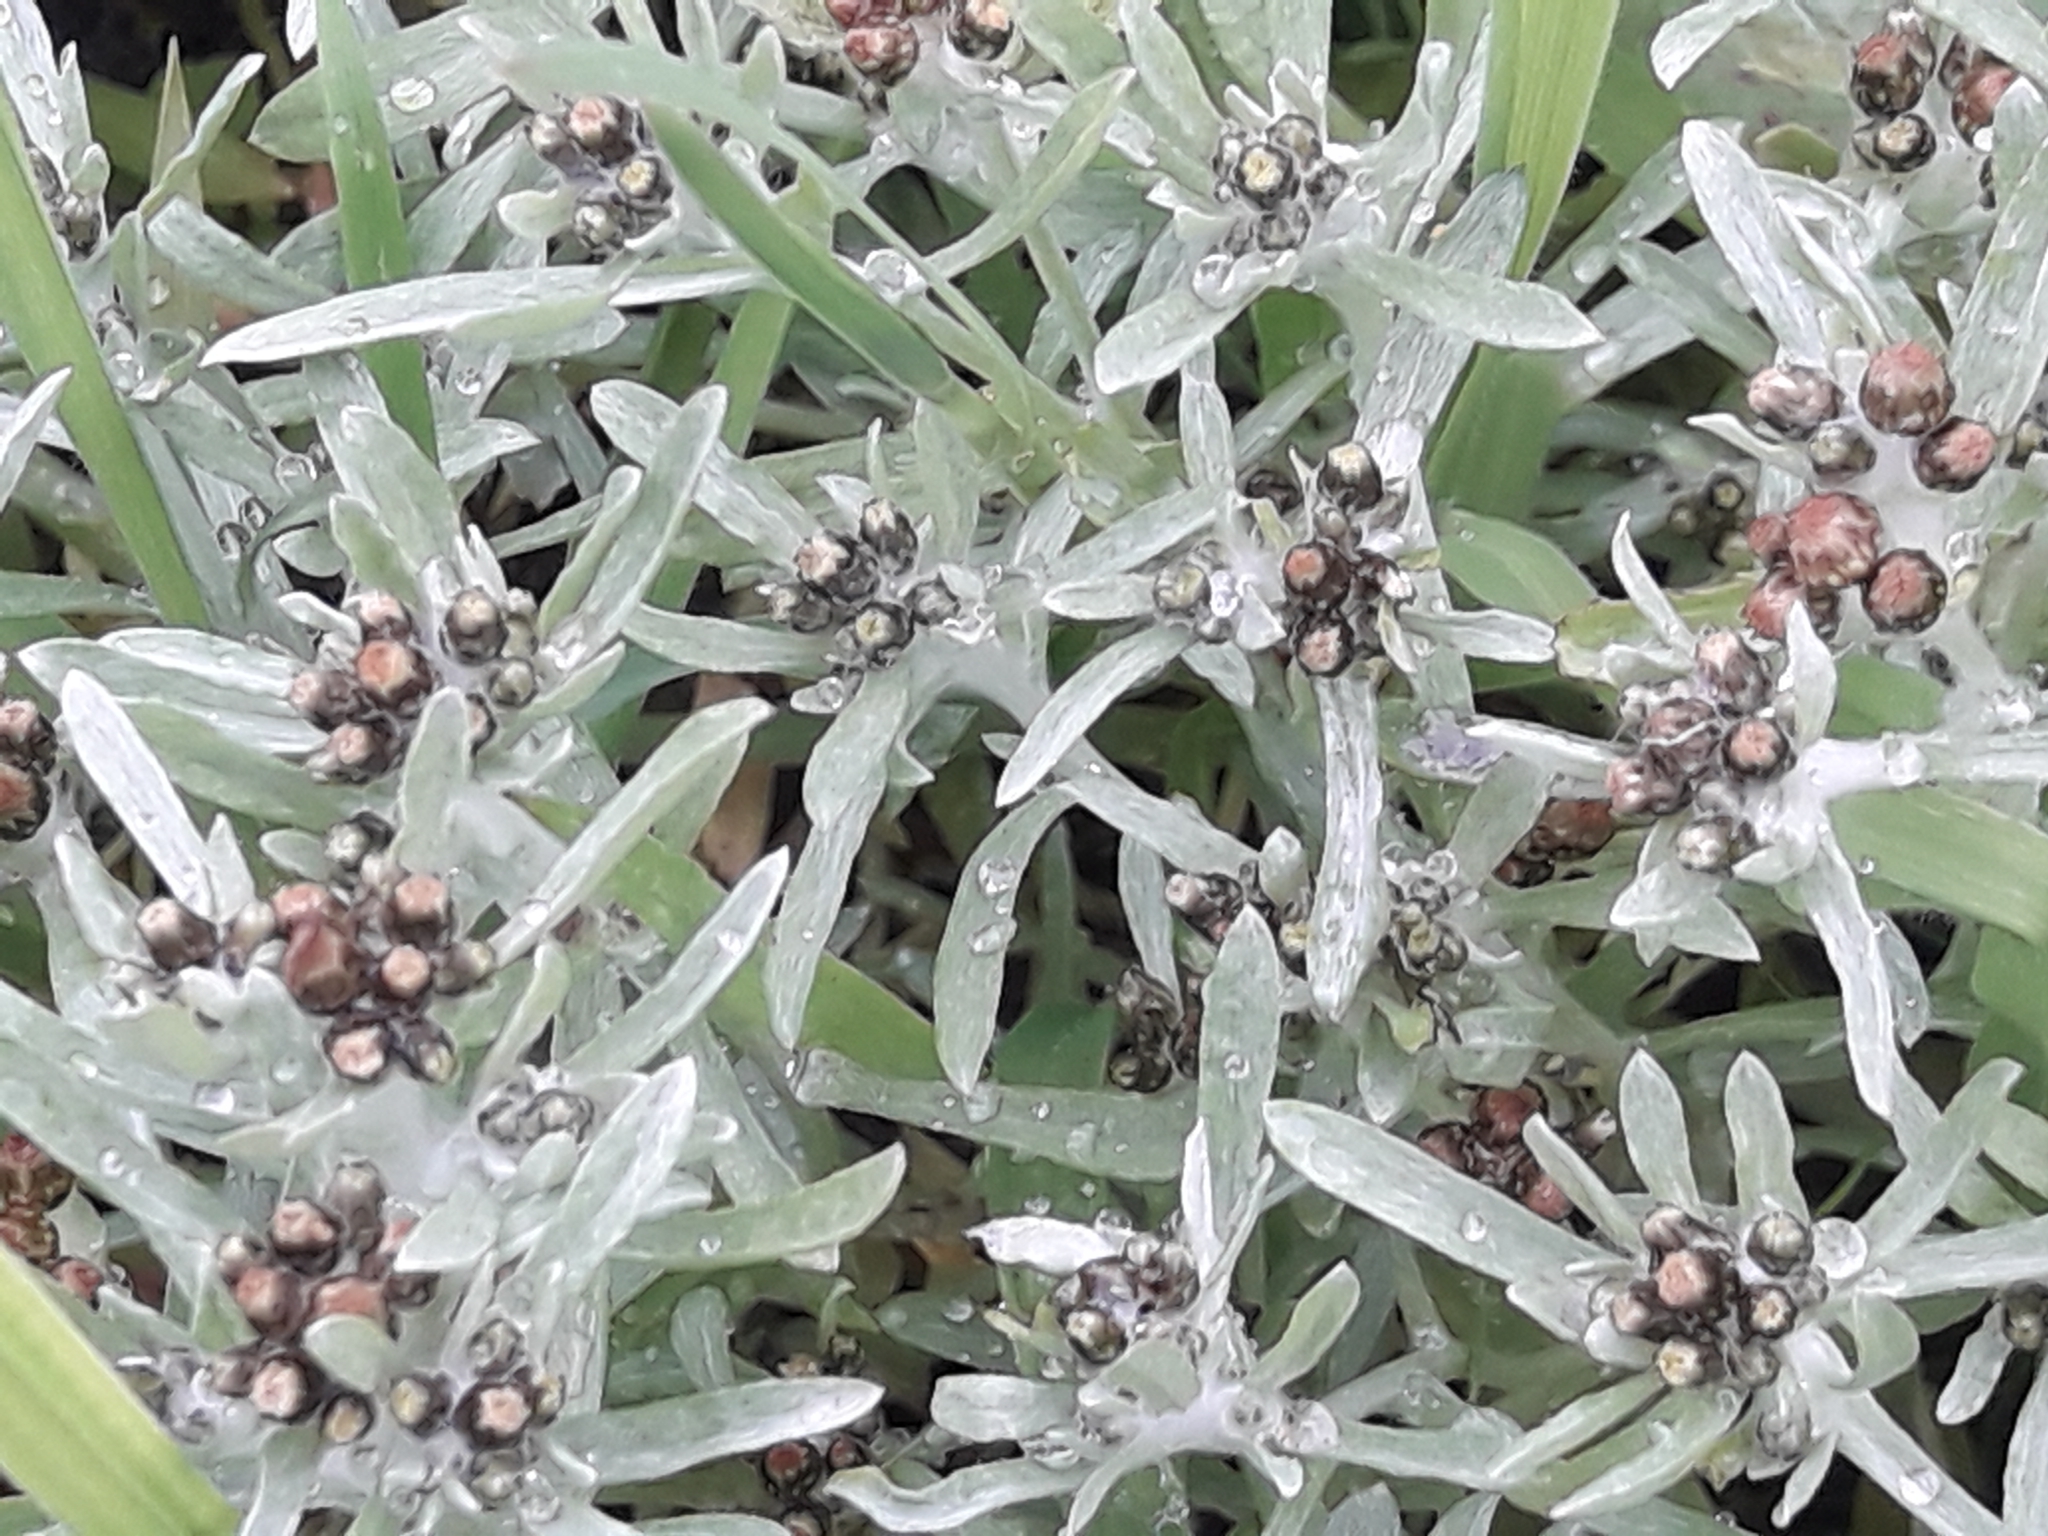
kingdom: Plantae
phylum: Tracheophyta
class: Magnoliopsida
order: Asterales
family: Asteraceae
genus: Gnaphalium
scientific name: Gnaphalium uliginosum
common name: Marsh cudweed
